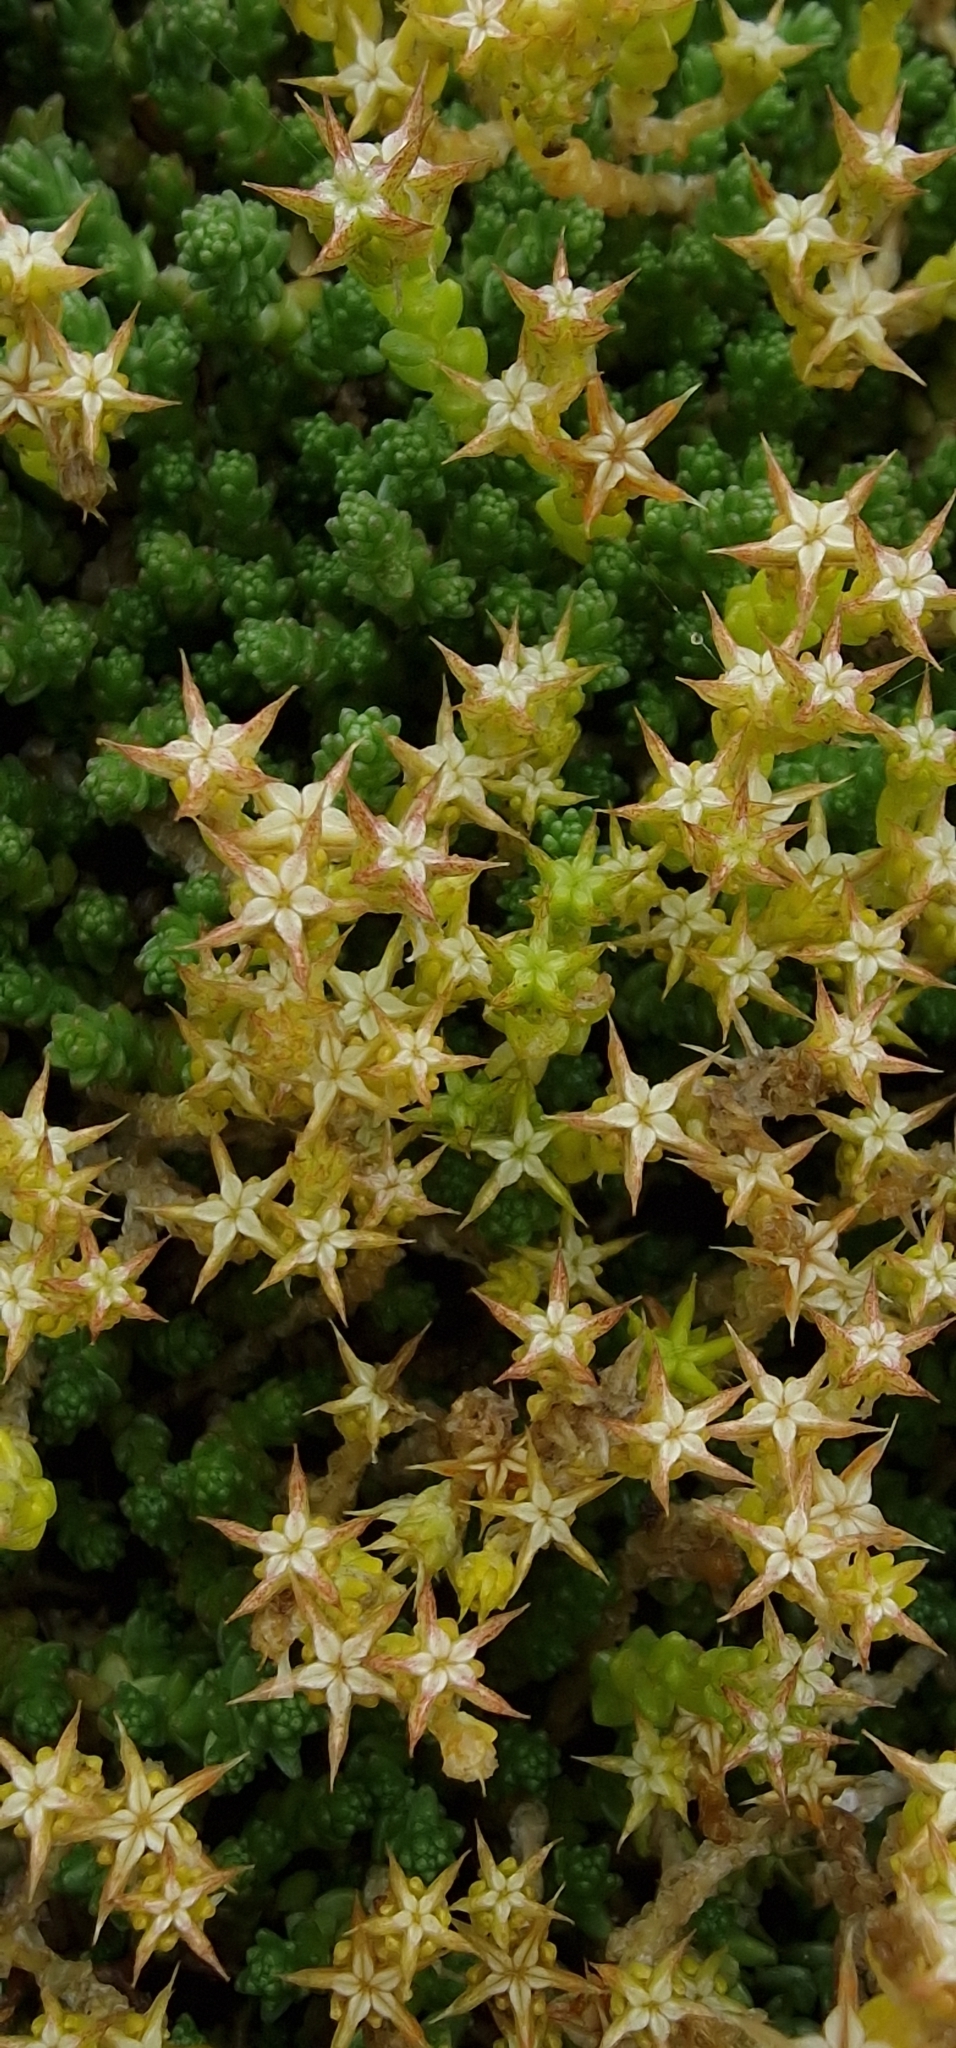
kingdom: Plantae
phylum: Tracheophyta
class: Magnoliopsida
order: Saxifragales
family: Crassulaceae
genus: Sedum
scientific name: Sedum acre
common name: Biting stonecrop
